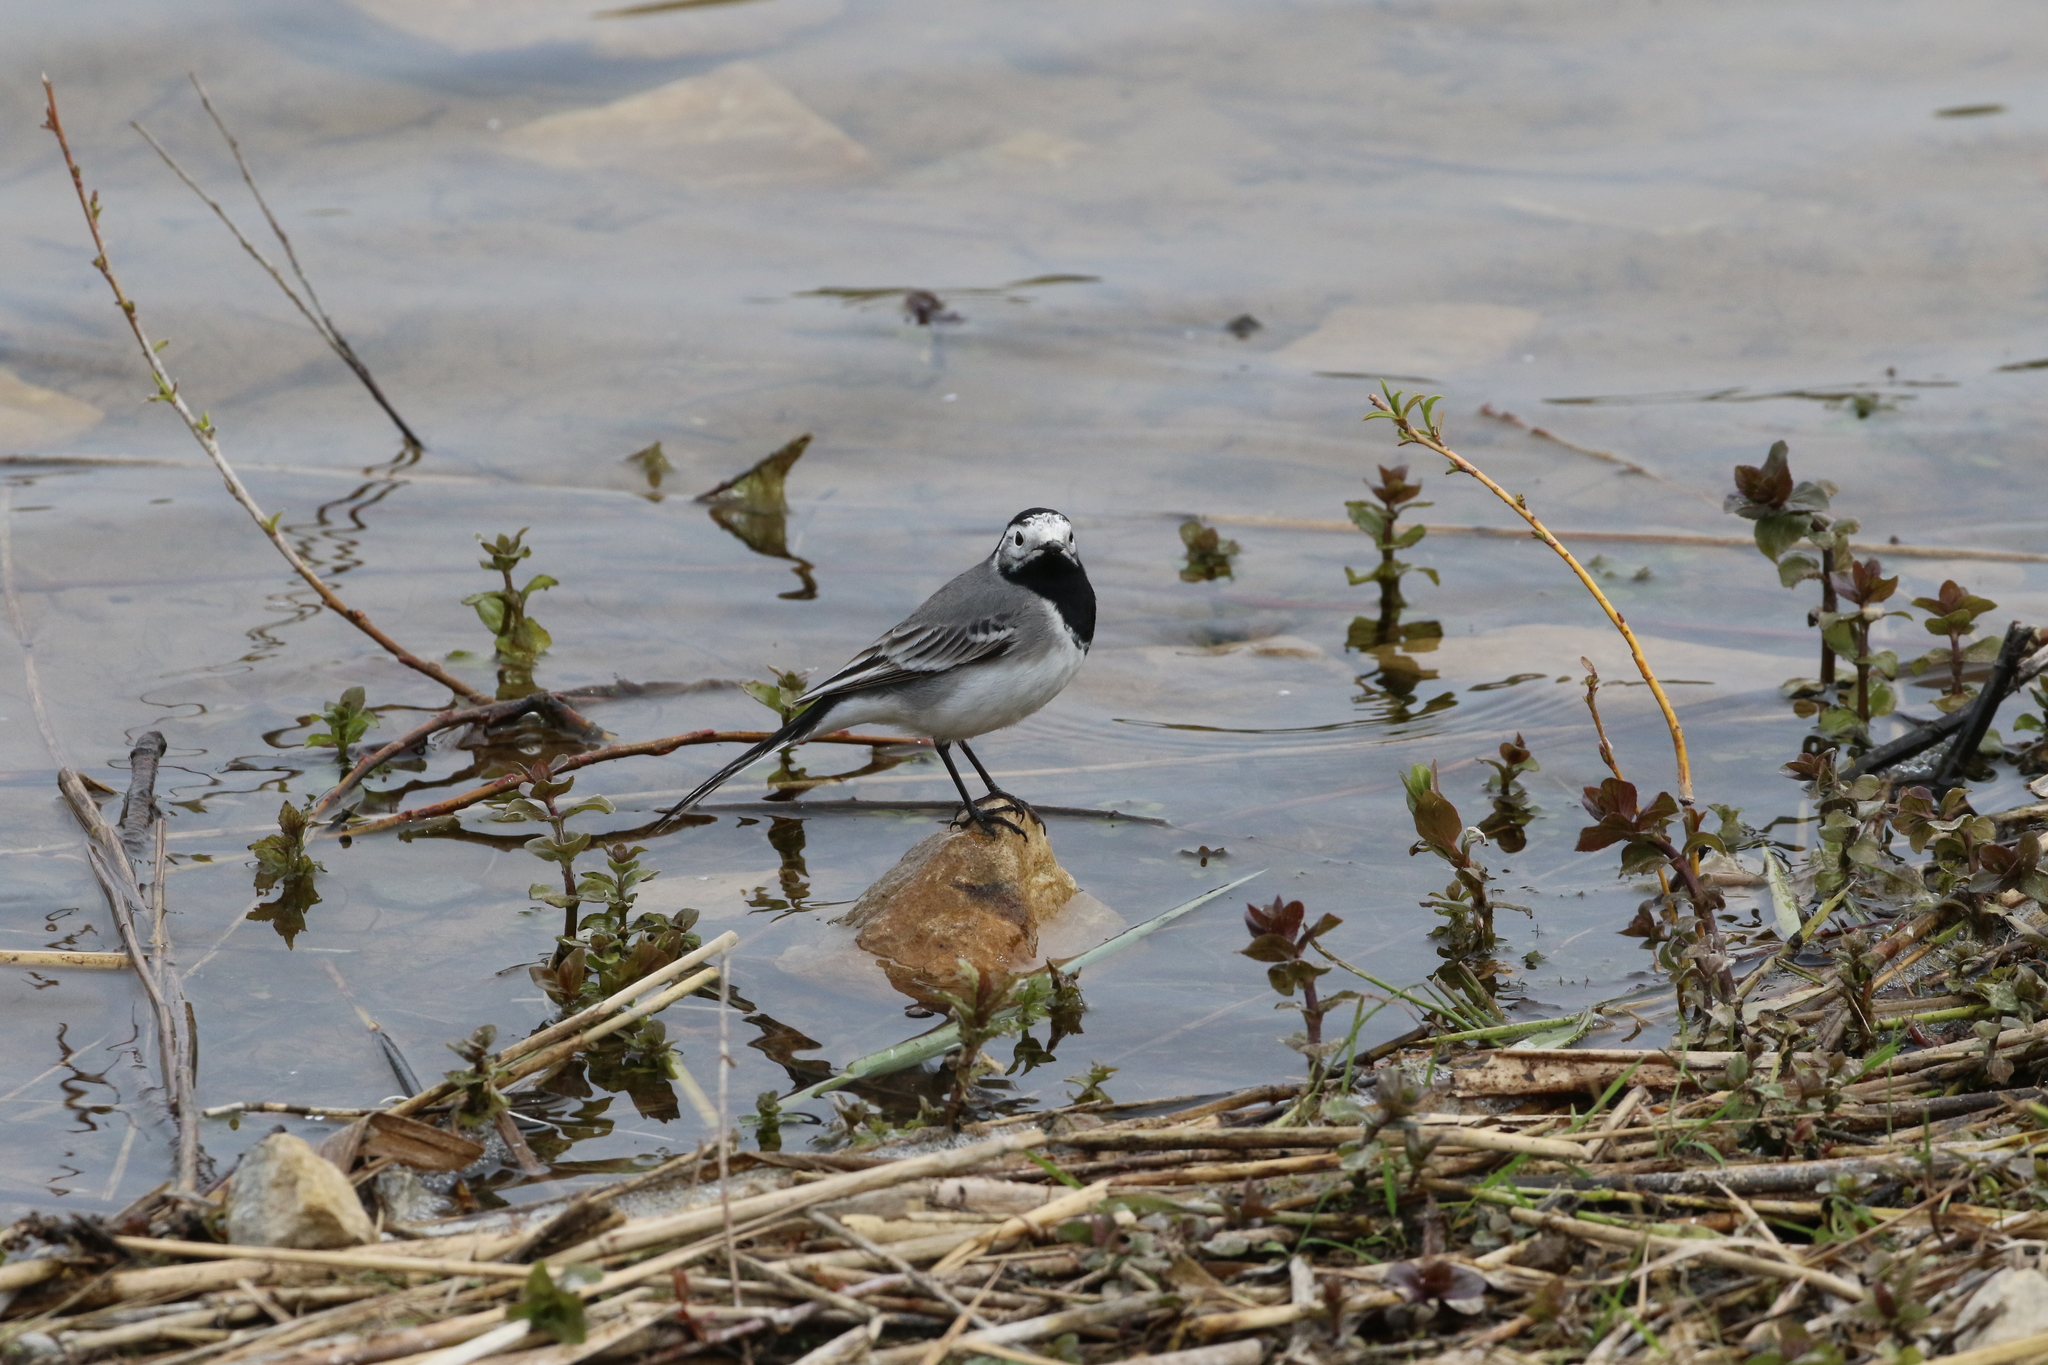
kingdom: Animalia
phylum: Chordata
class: Aves
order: Passeriformes
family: Motacillidae
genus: Motacilla
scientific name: Motacilla alba
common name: White wagtail
